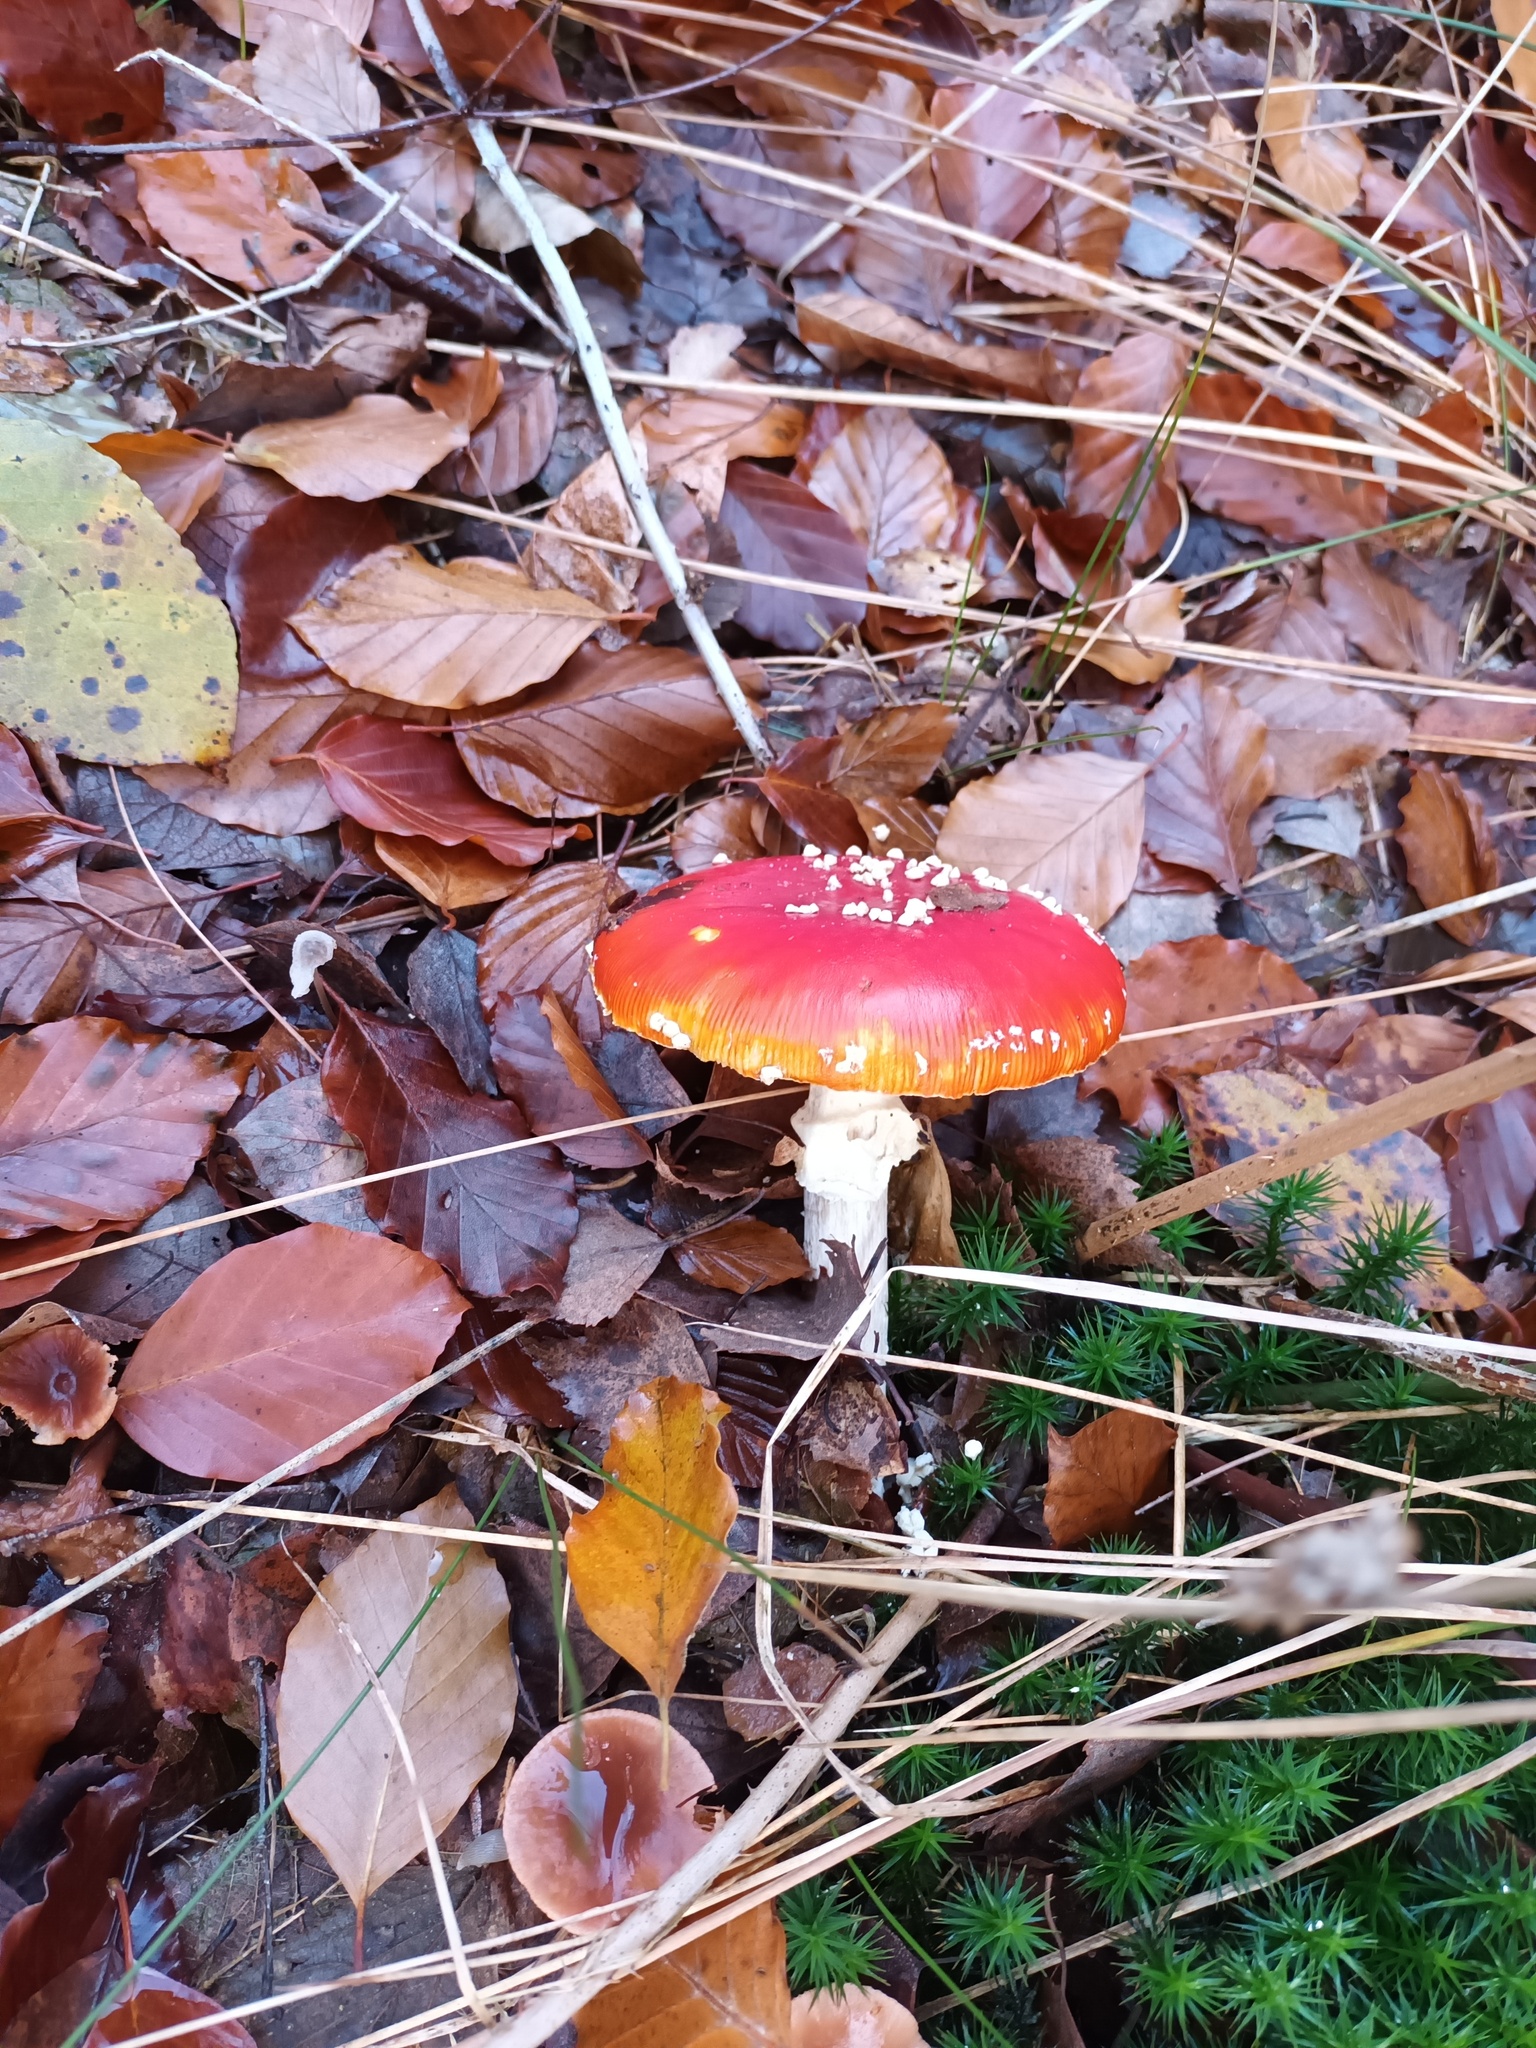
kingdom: Fungi
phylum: Basidiomycota
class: Agaricomycetes
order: Agaricales
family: Amanitaceae
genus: Amanita
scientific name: Amanita muscaria
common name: Fly agaric
